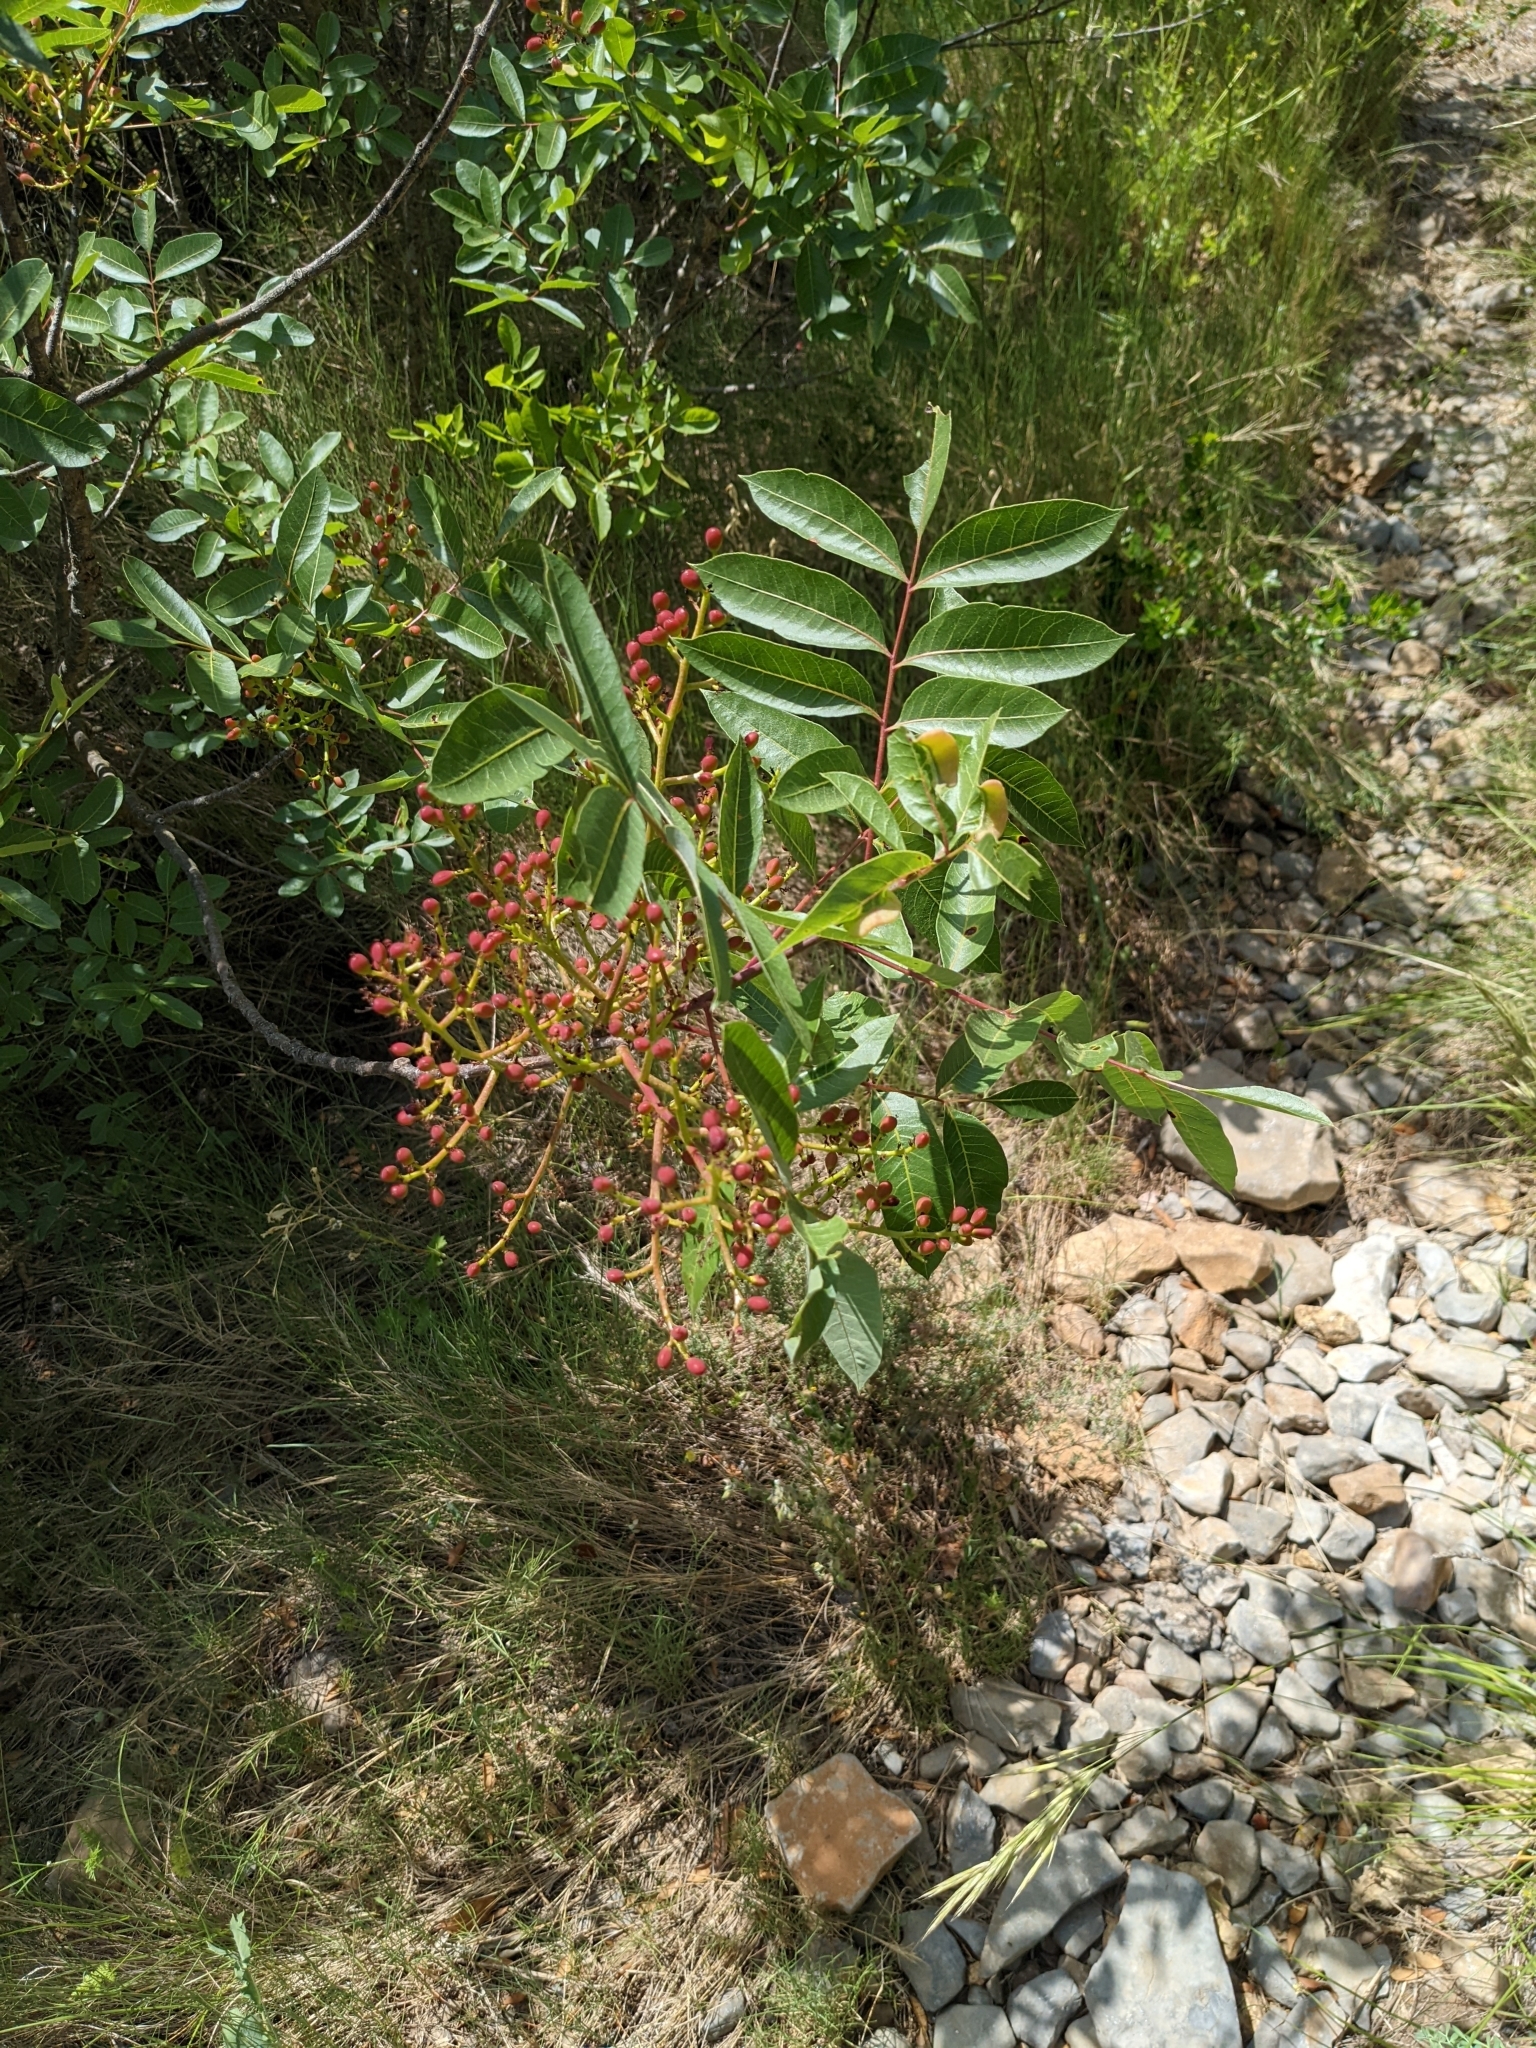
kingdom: Plantae
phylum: Tracheophyta
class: Magnoliopsida
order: Sapindales
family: Anacardiaceae
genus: Pistacia
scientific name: Pistacia terebinthus
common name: Terebinth
